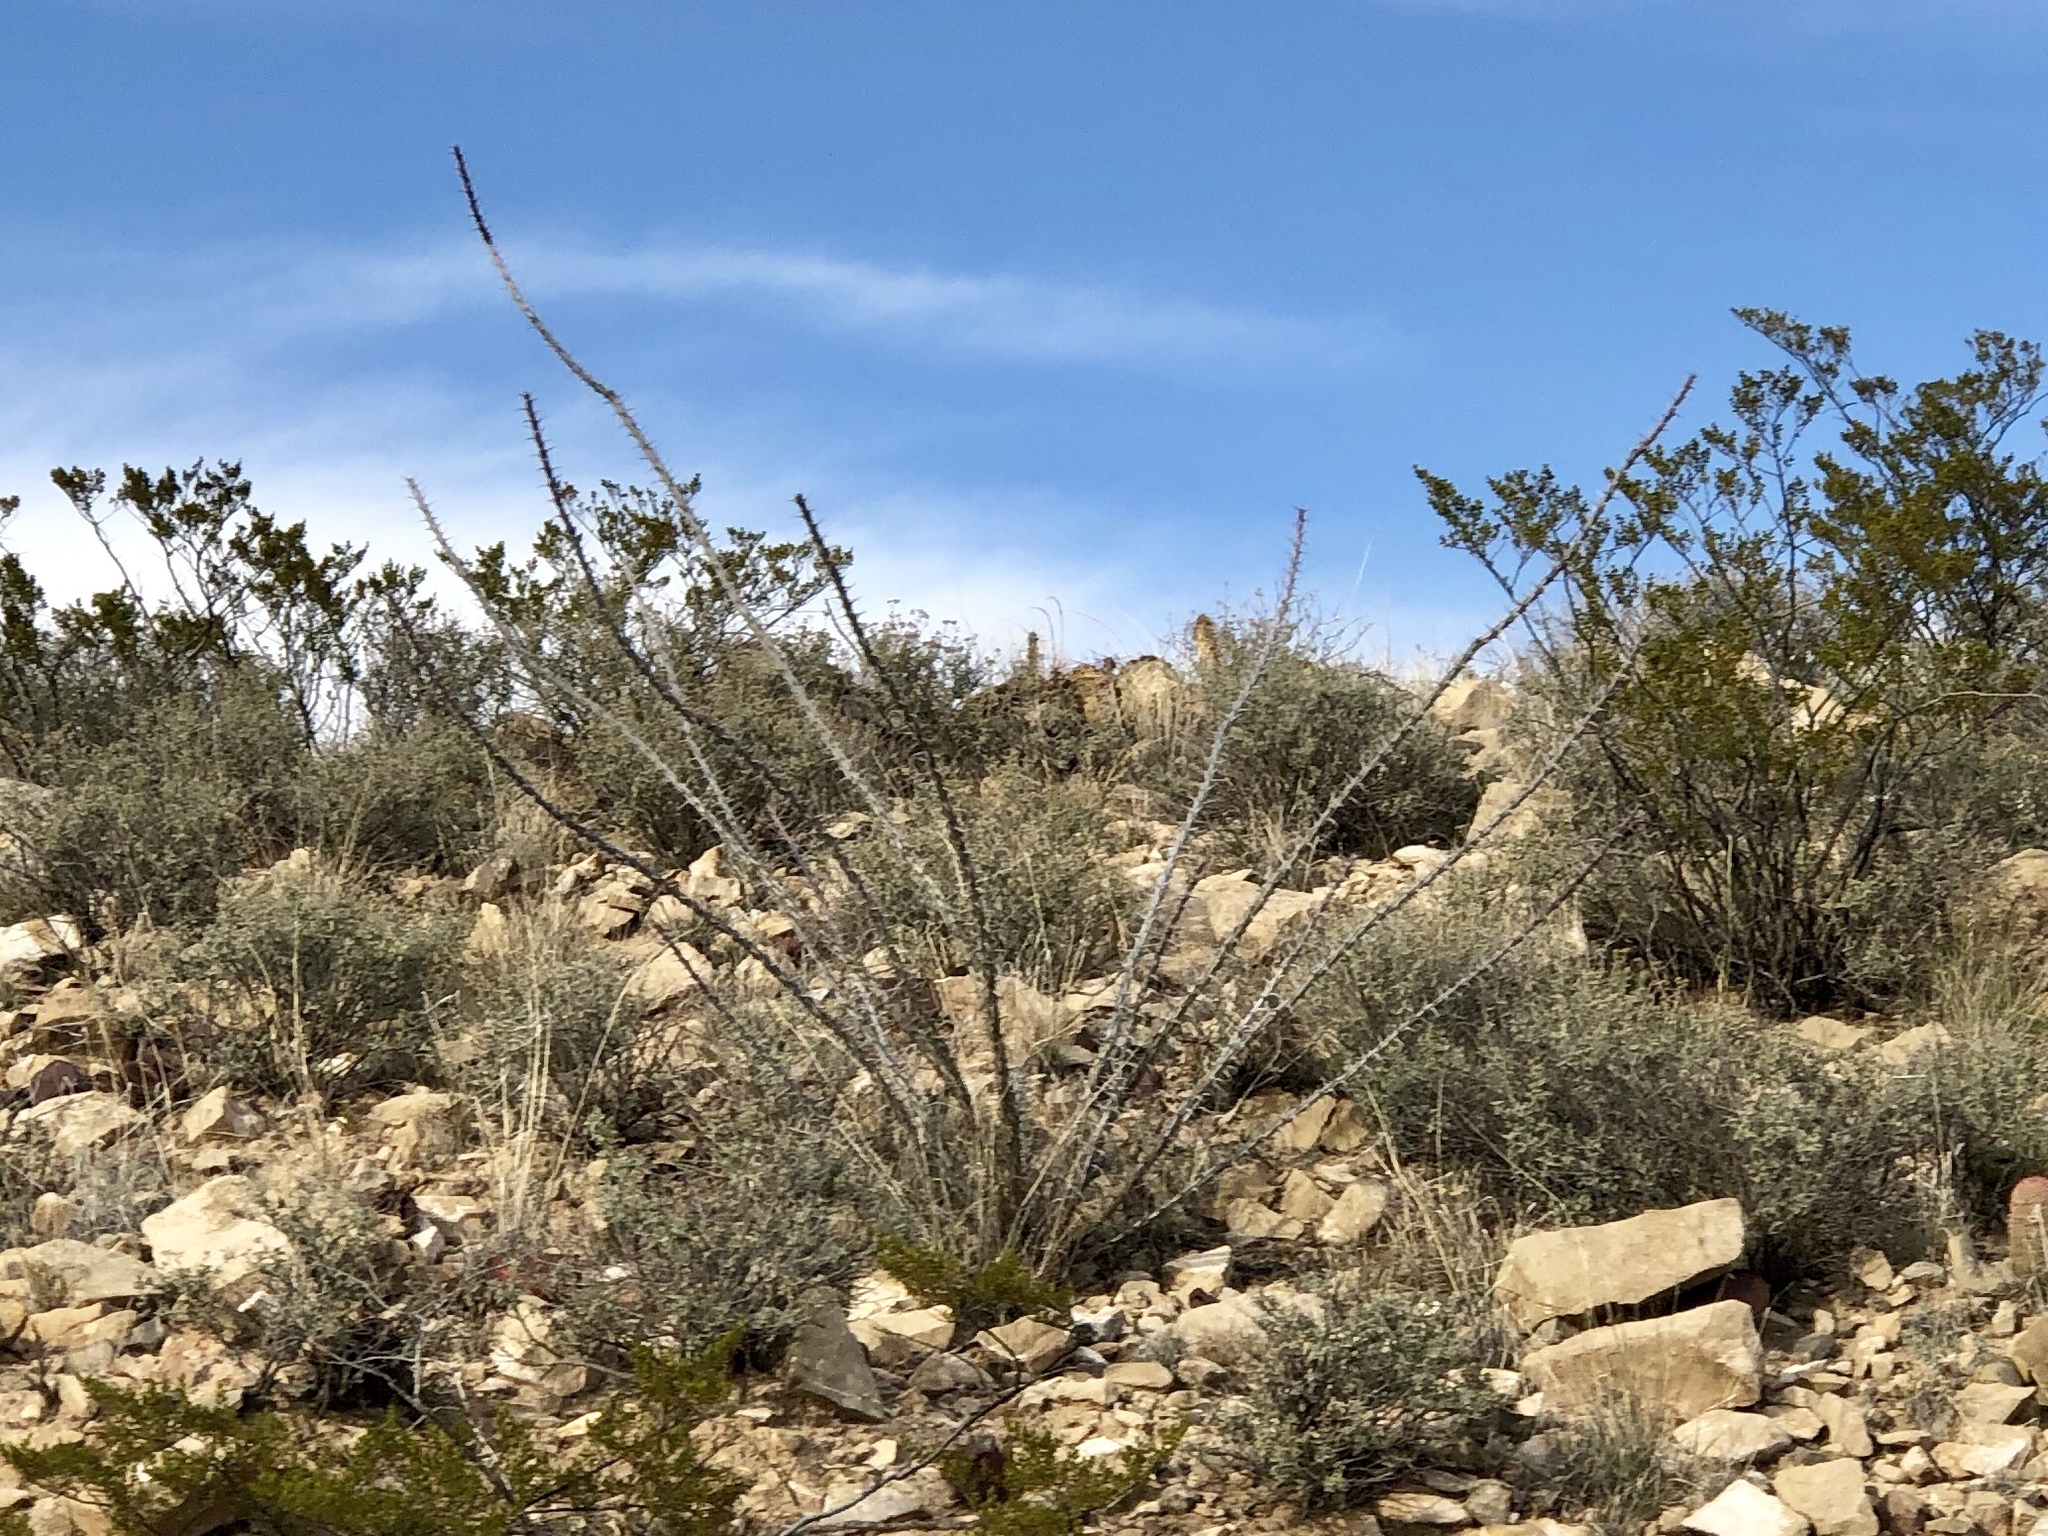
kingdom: Plantae
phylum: Tracheophyta
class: Magnoliopsida
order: Ericales
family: Fouquieriaceae
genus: Fouquieria
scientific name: Fouquieria splendens
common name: Vine-cactus
